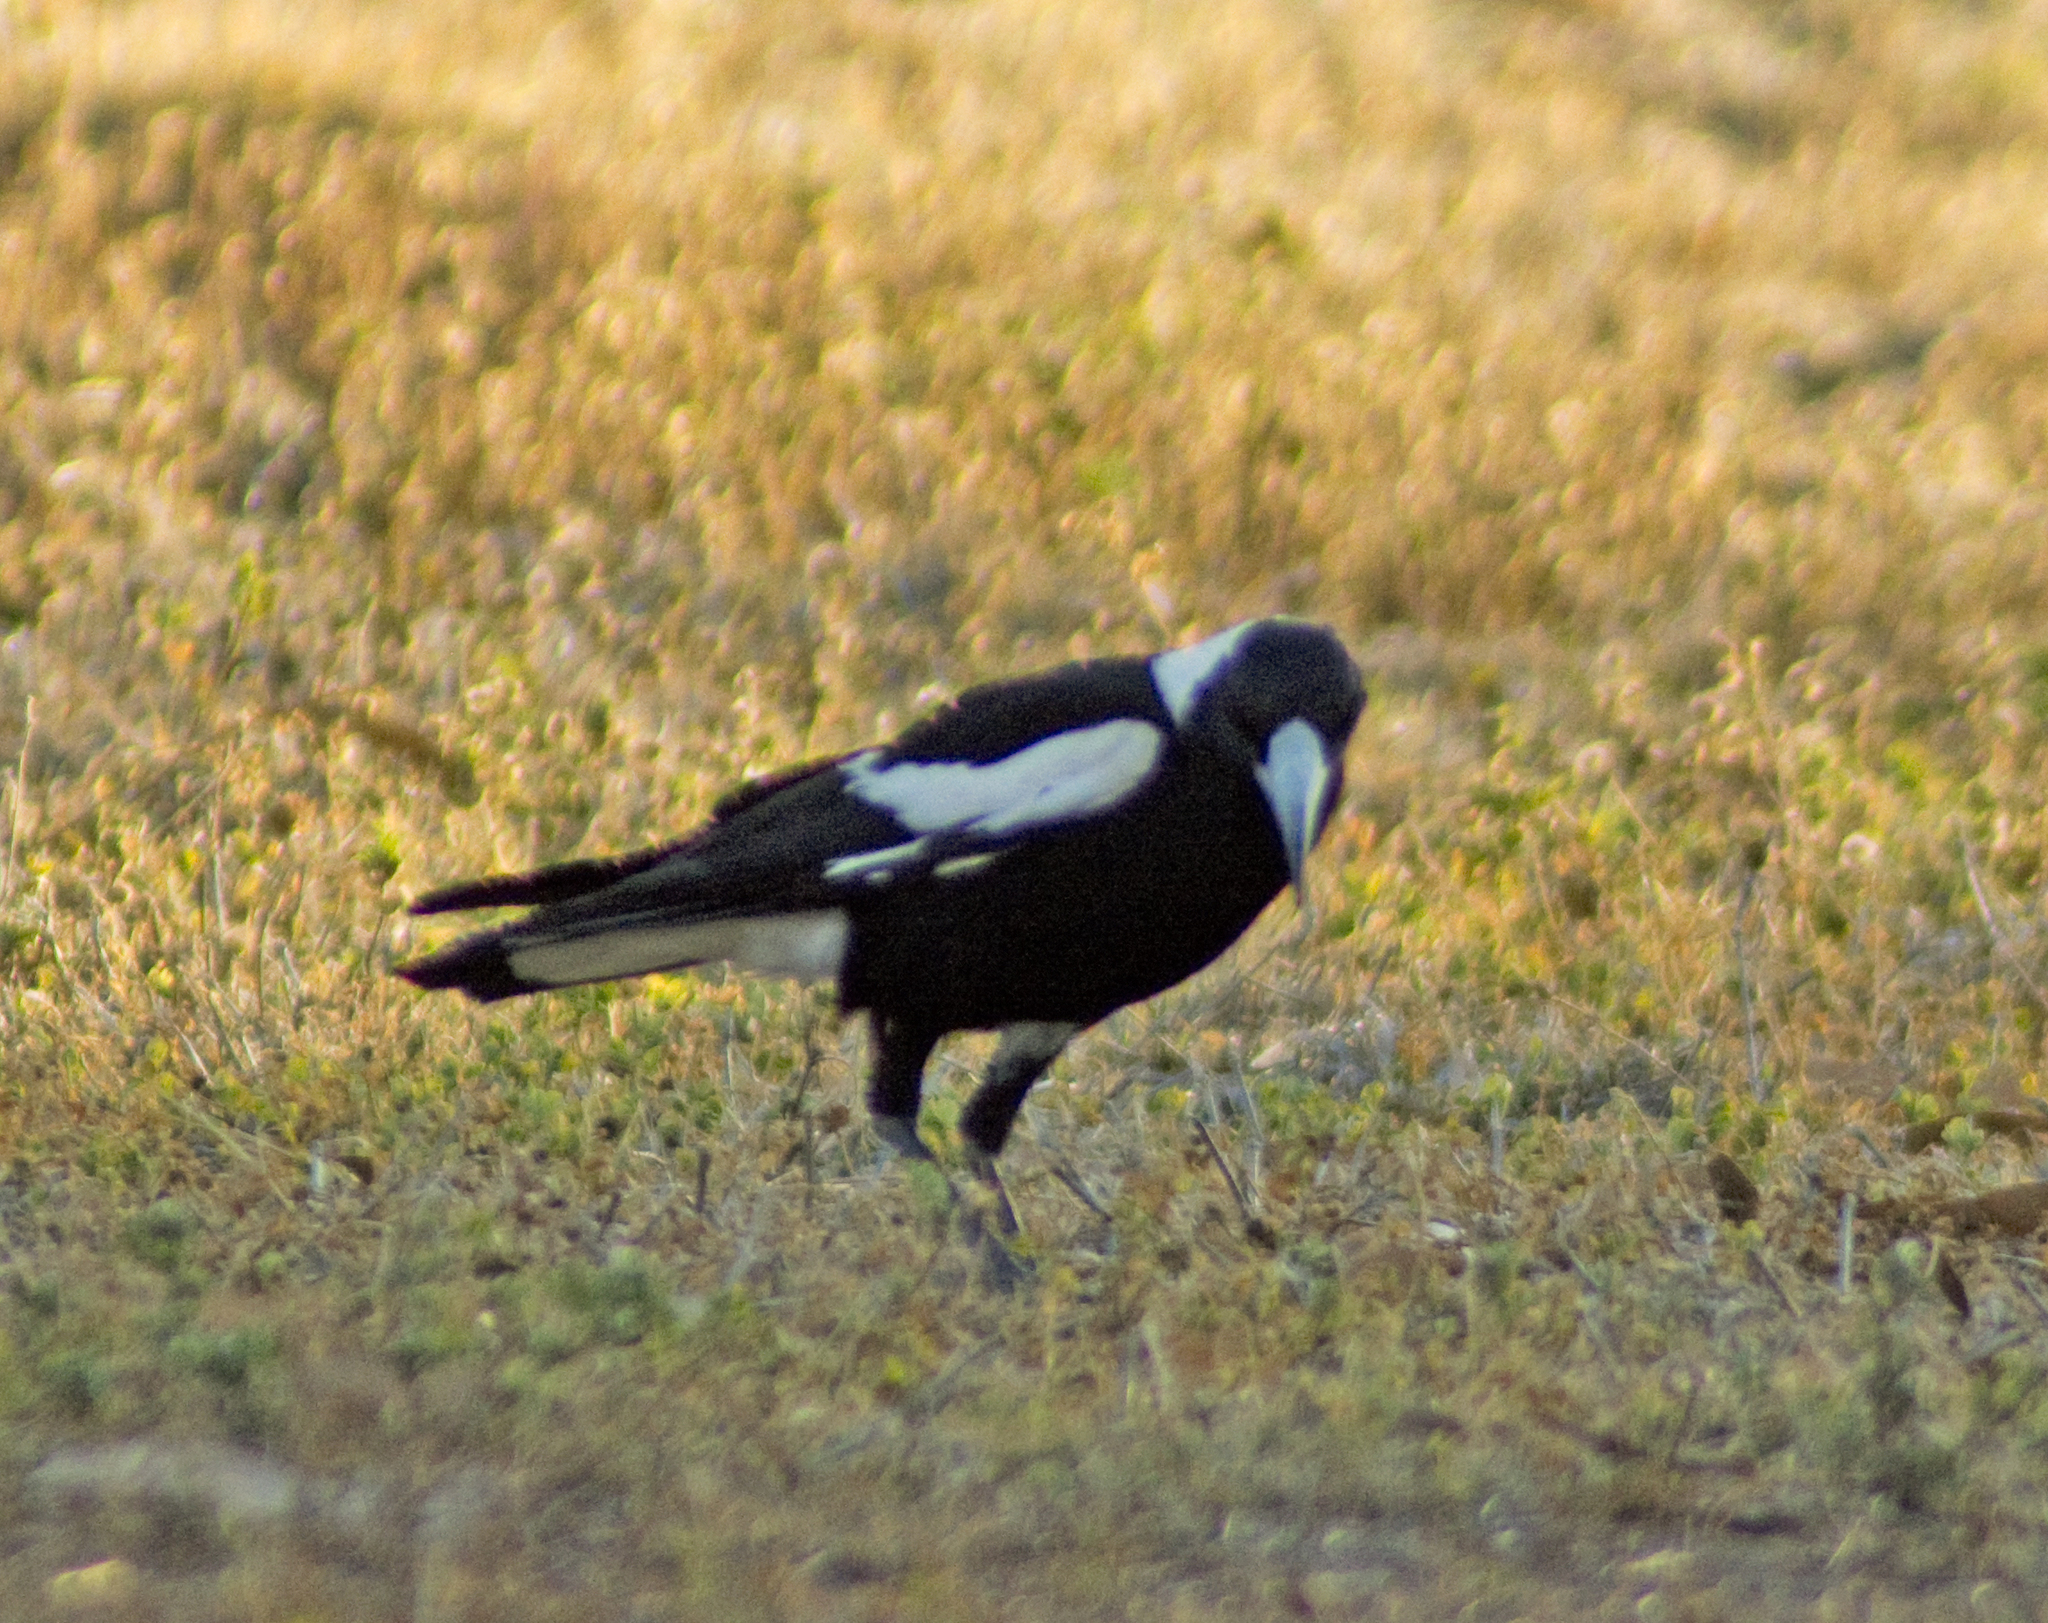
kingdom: Animalia
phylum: Chordata
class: Aves
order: Passeriformes
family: Cracticidae
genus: Gymnorhina
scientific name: Gymnorhina tibicen
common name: Australian magpie
